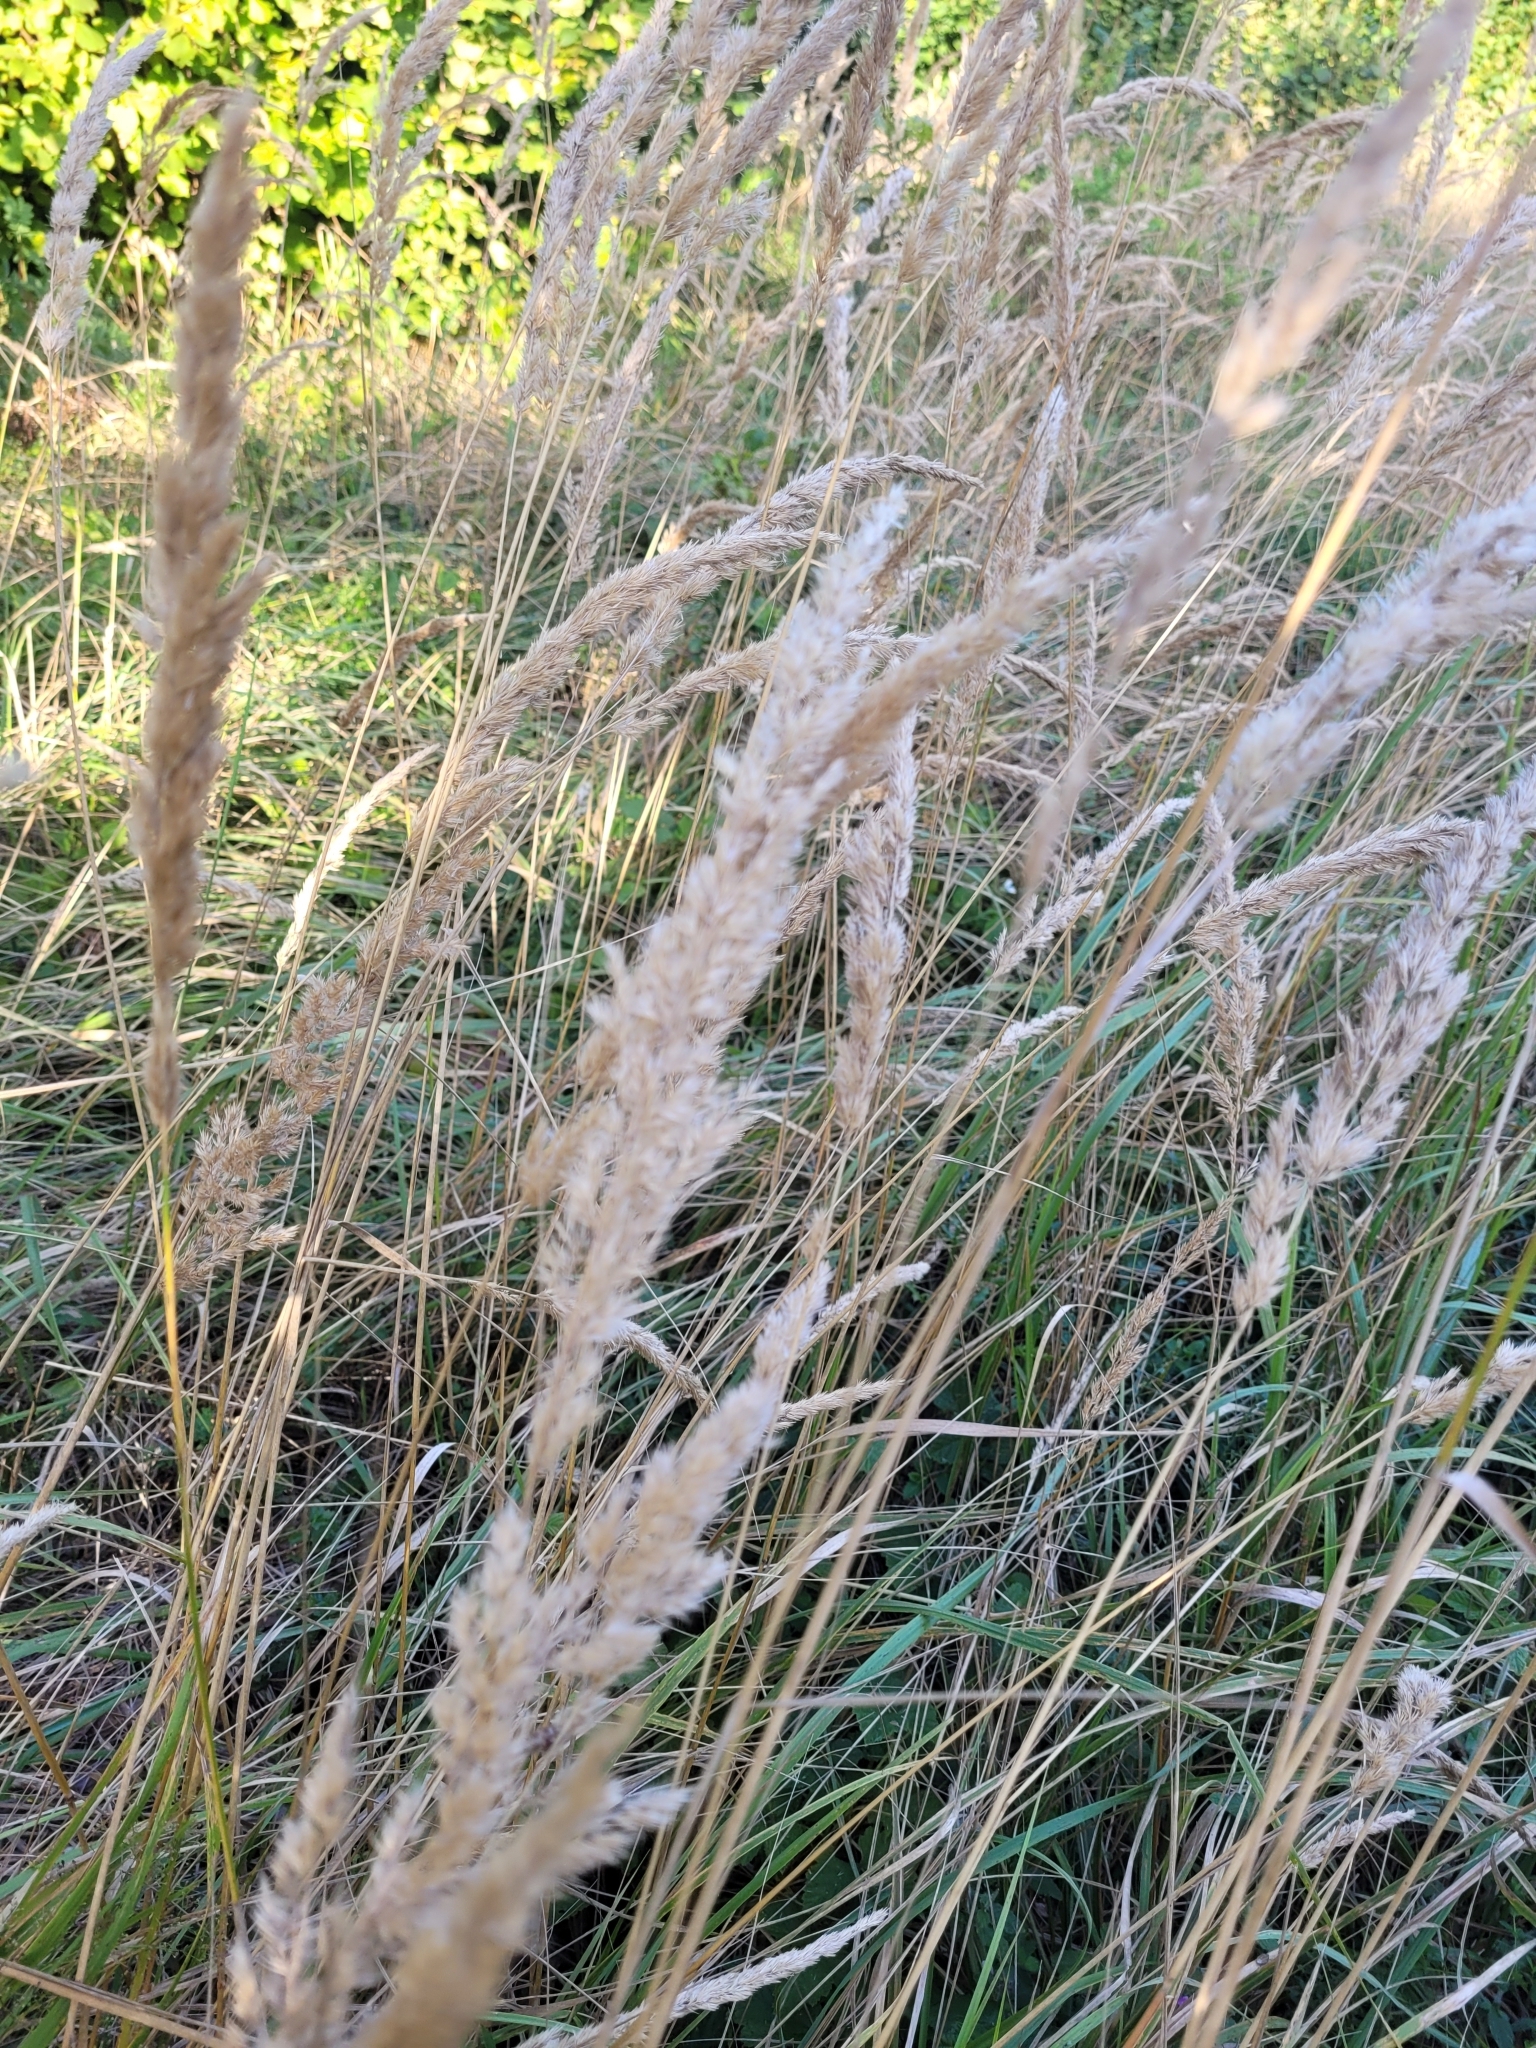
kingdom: Plantae
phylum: Tracheophyta
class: Liliopsida
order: Poales
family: Poaceae
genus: Calamagrostis
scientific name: Calamagrostis epigejos
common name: Wood small-reed
